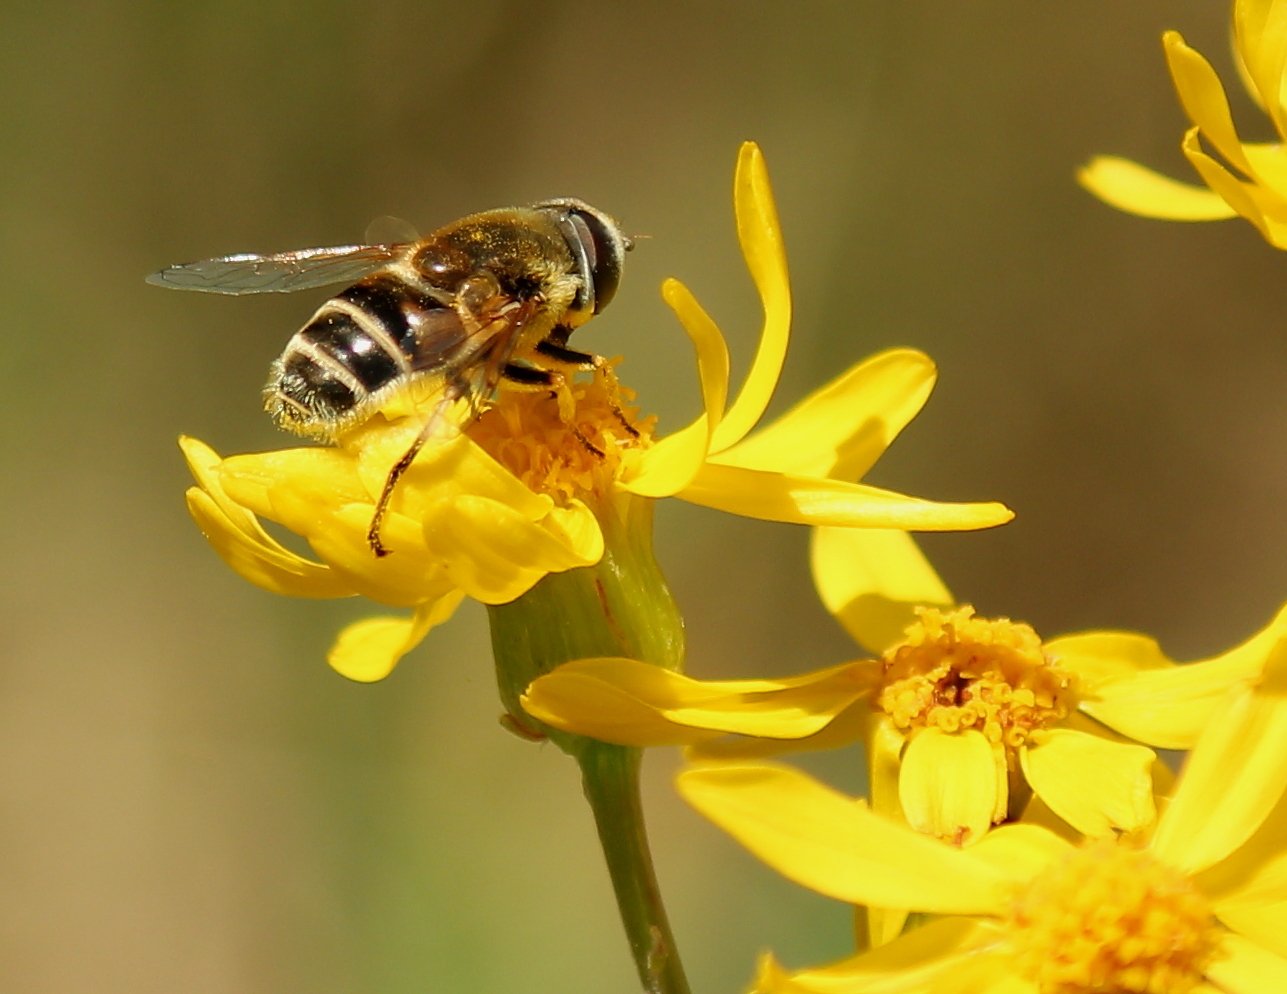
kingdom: Animalia
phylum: Arthropoda
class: Insecta
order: Diptera
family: Syrphidae
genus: Eristalis
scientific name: Eristalis stipator
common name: Yellow-shouldered drone fly
